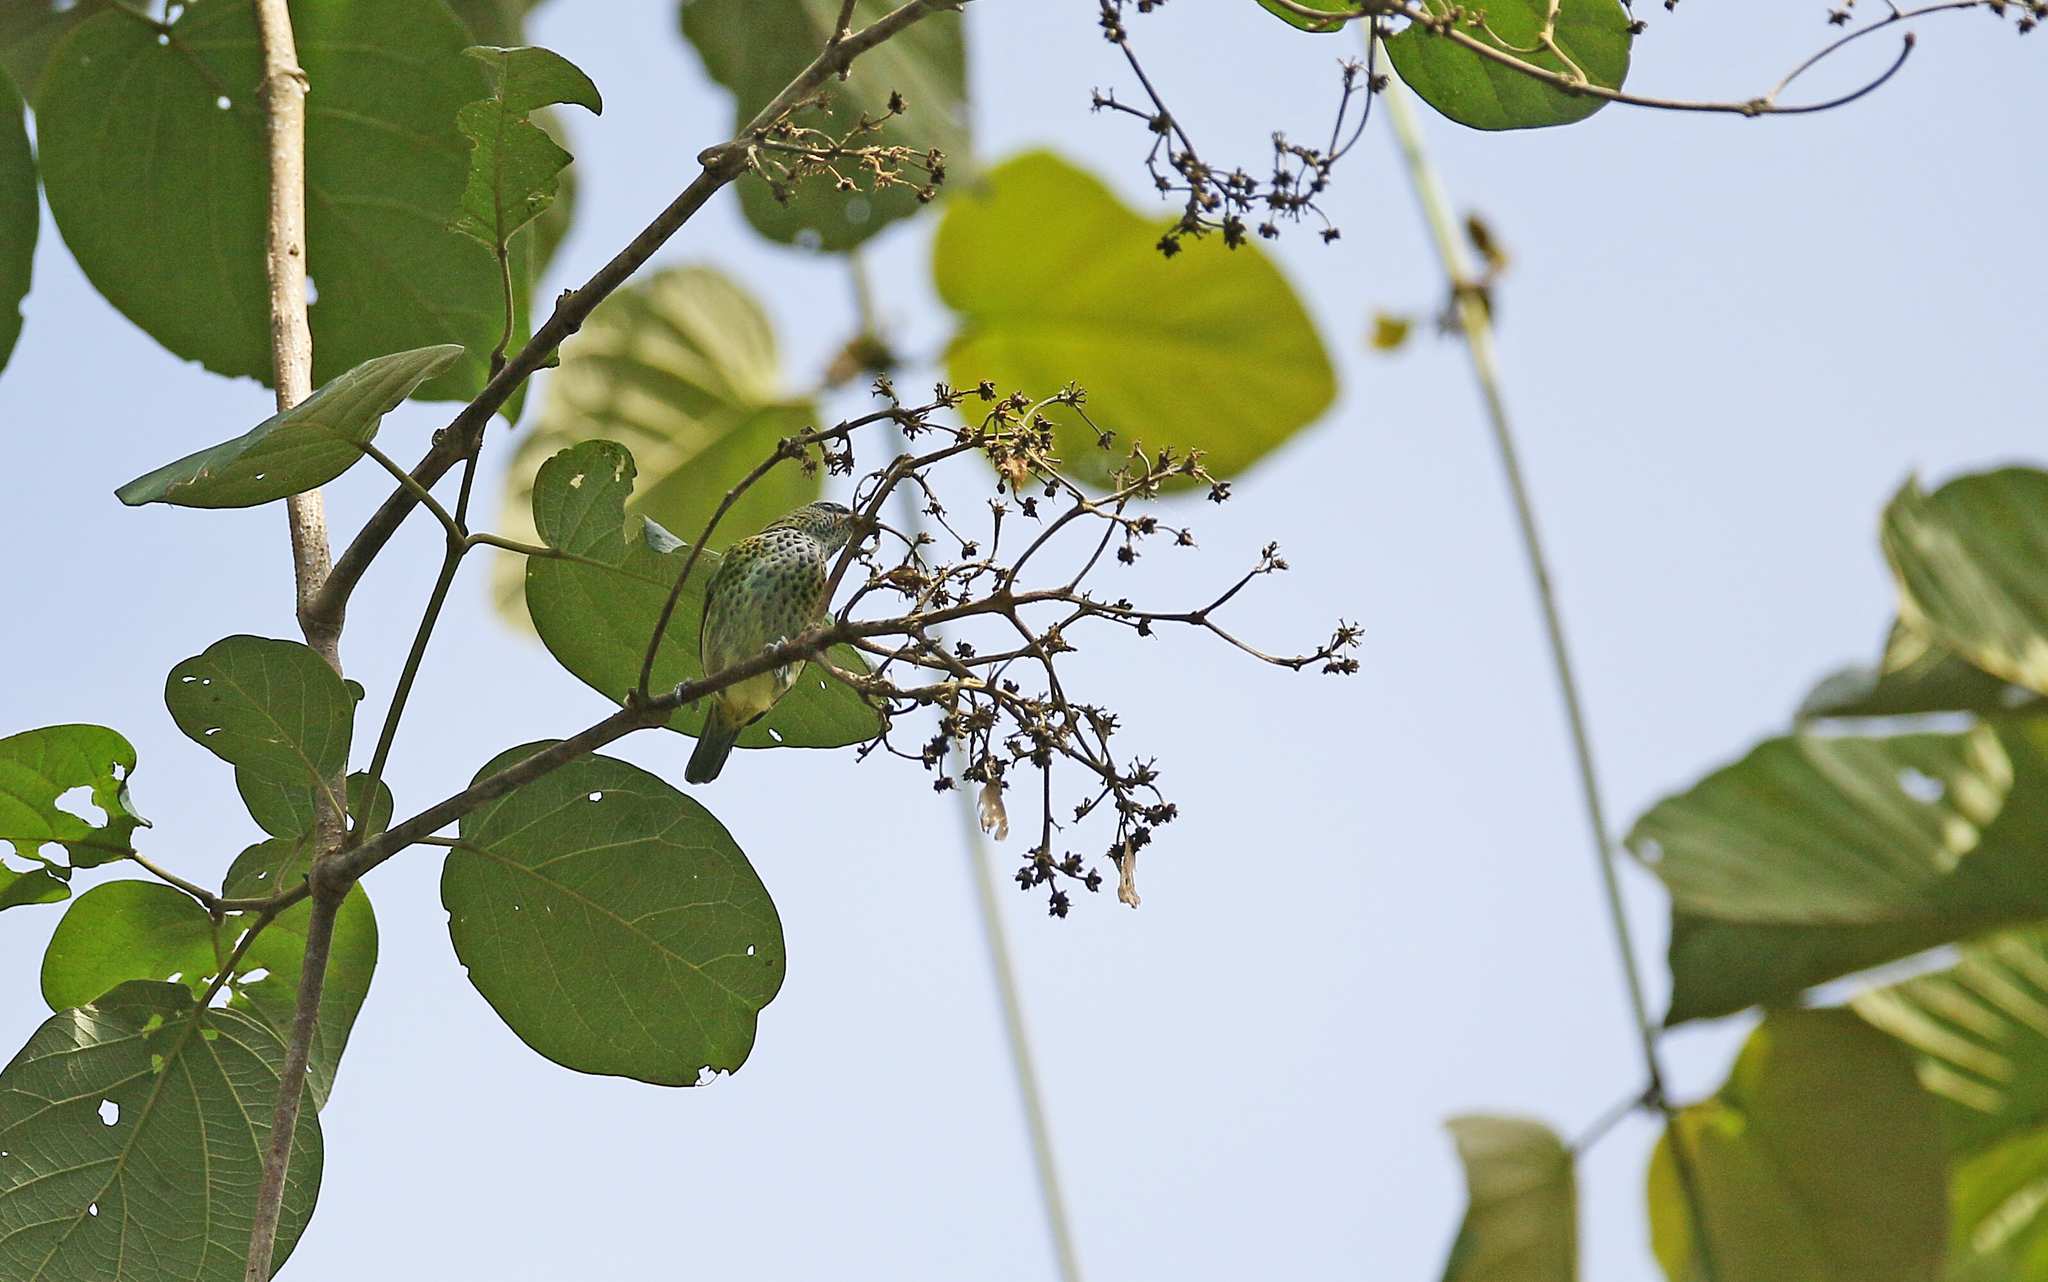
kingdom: Animalia
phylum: Chordata
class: Aves
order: Passeriformes
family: Thraupidae
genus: Ixothraupis
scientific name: Ixothraupis punctata
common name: Spotted tanager
